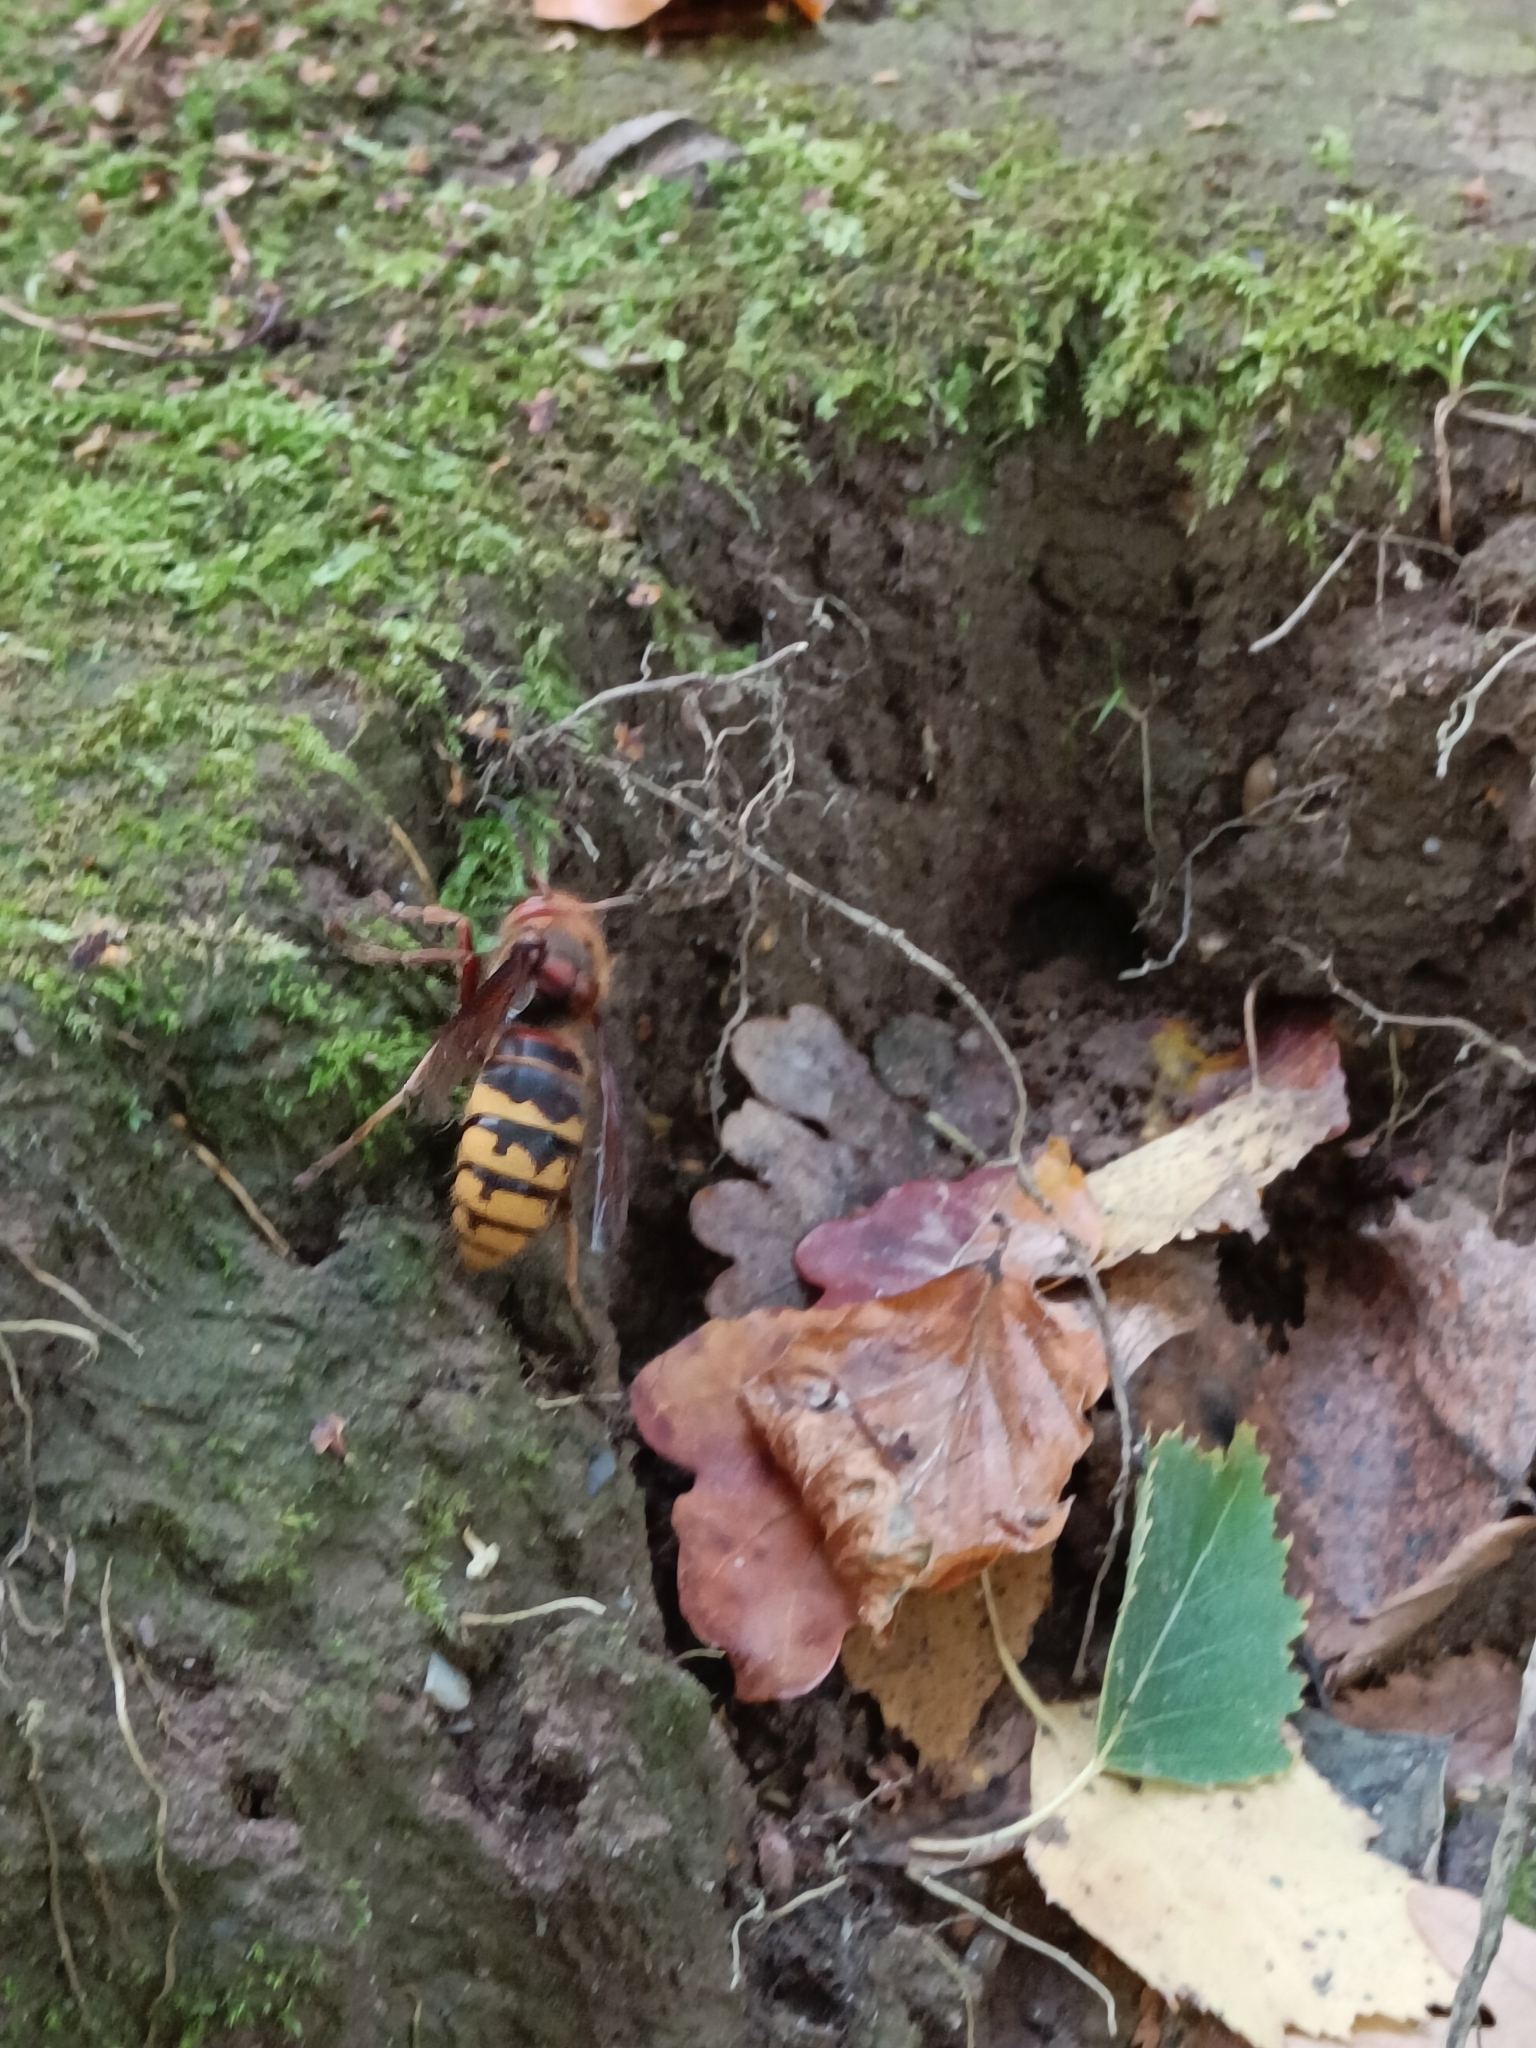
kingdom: Animalia
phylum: Arthropoda
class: Insecta
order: Hymenoptera
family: Vespidae
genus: Vespa
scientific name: Vespa crabro
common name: Hornet
